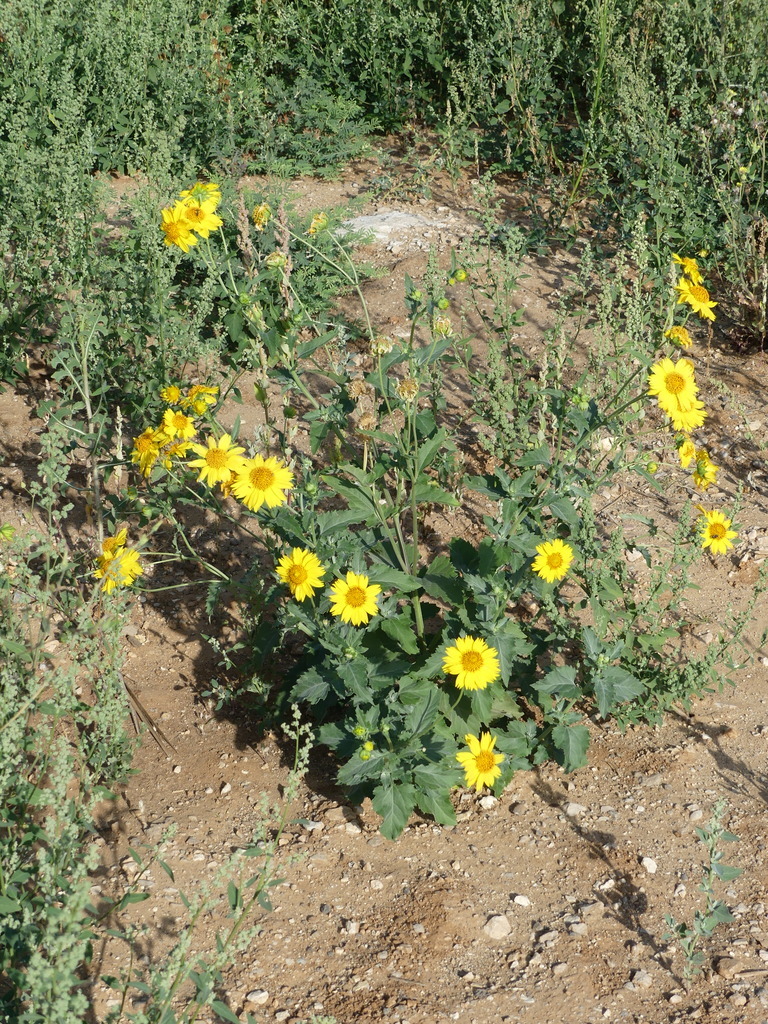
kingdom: Plantae
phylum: Tracheophyta
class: Magnoliopsida
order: Asterales
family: Asteraceae
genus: Verbesina
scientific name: Verbesina encelioides
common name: Golden crownbeard
